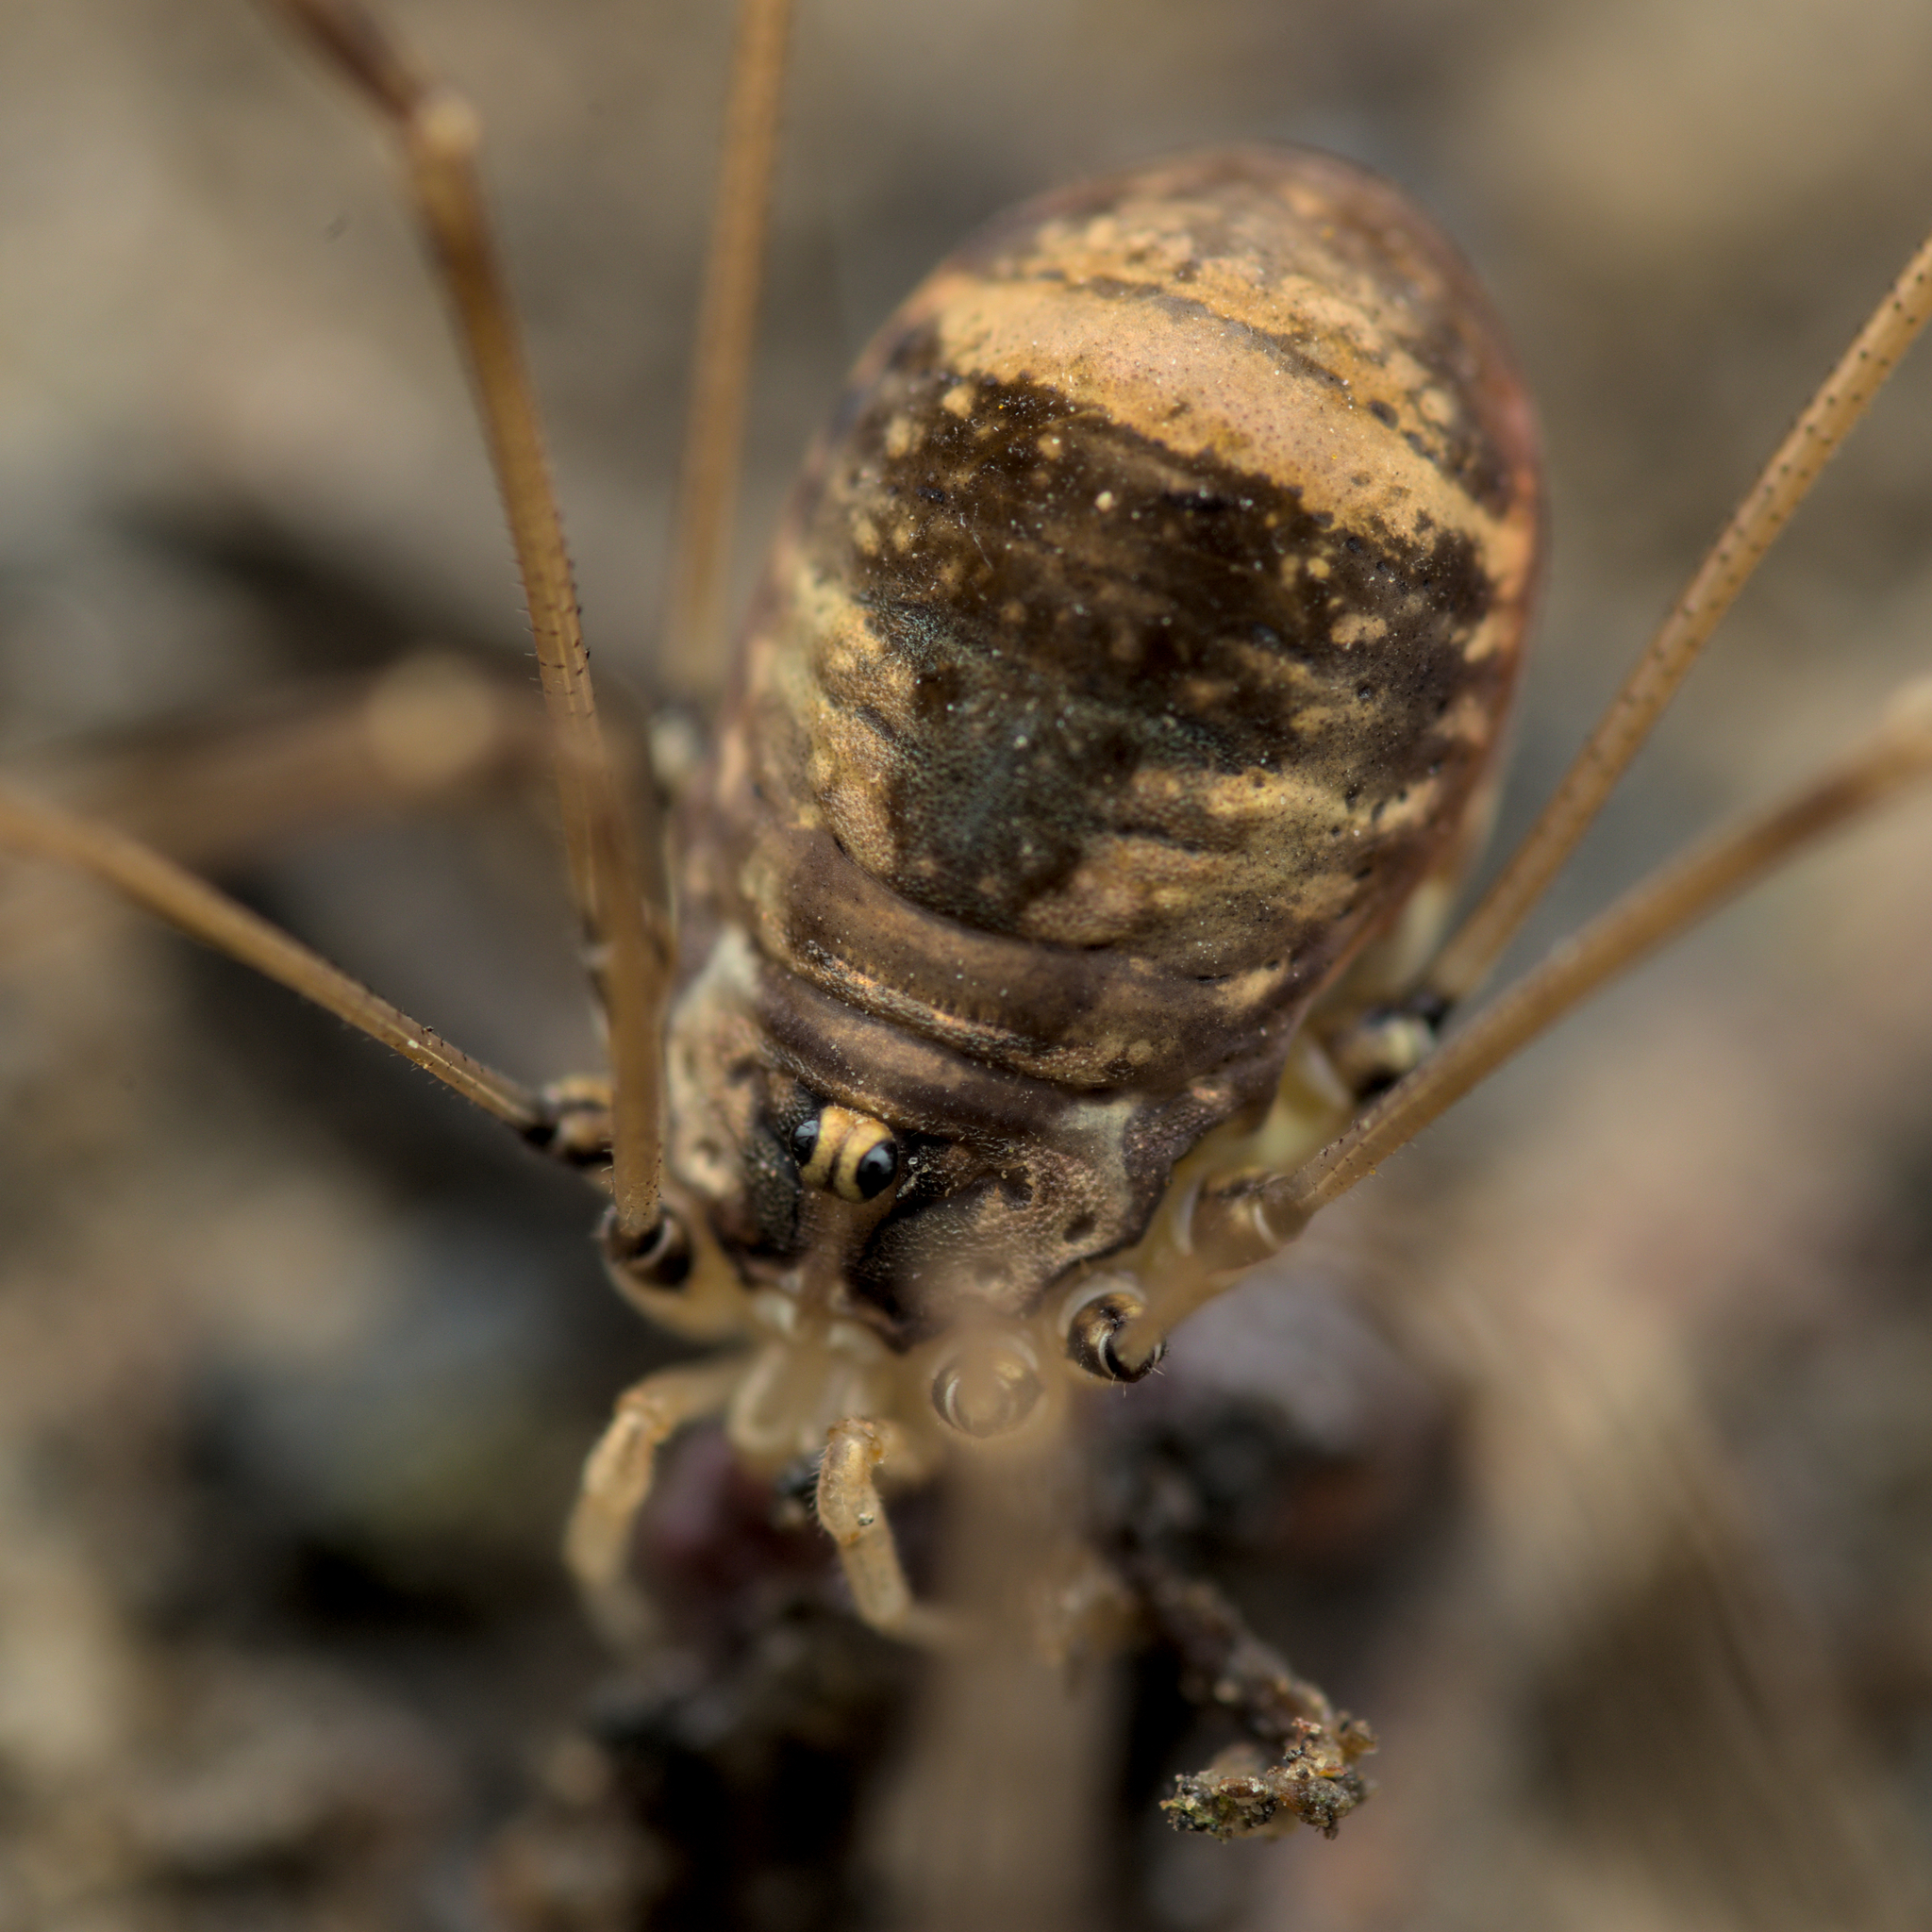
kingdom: Animalia
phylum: Arthropoda
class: Arachnida
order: Opiliones
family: Sclerosomatidae
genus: Leiobunum
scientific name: Leiobunum blackwalli
